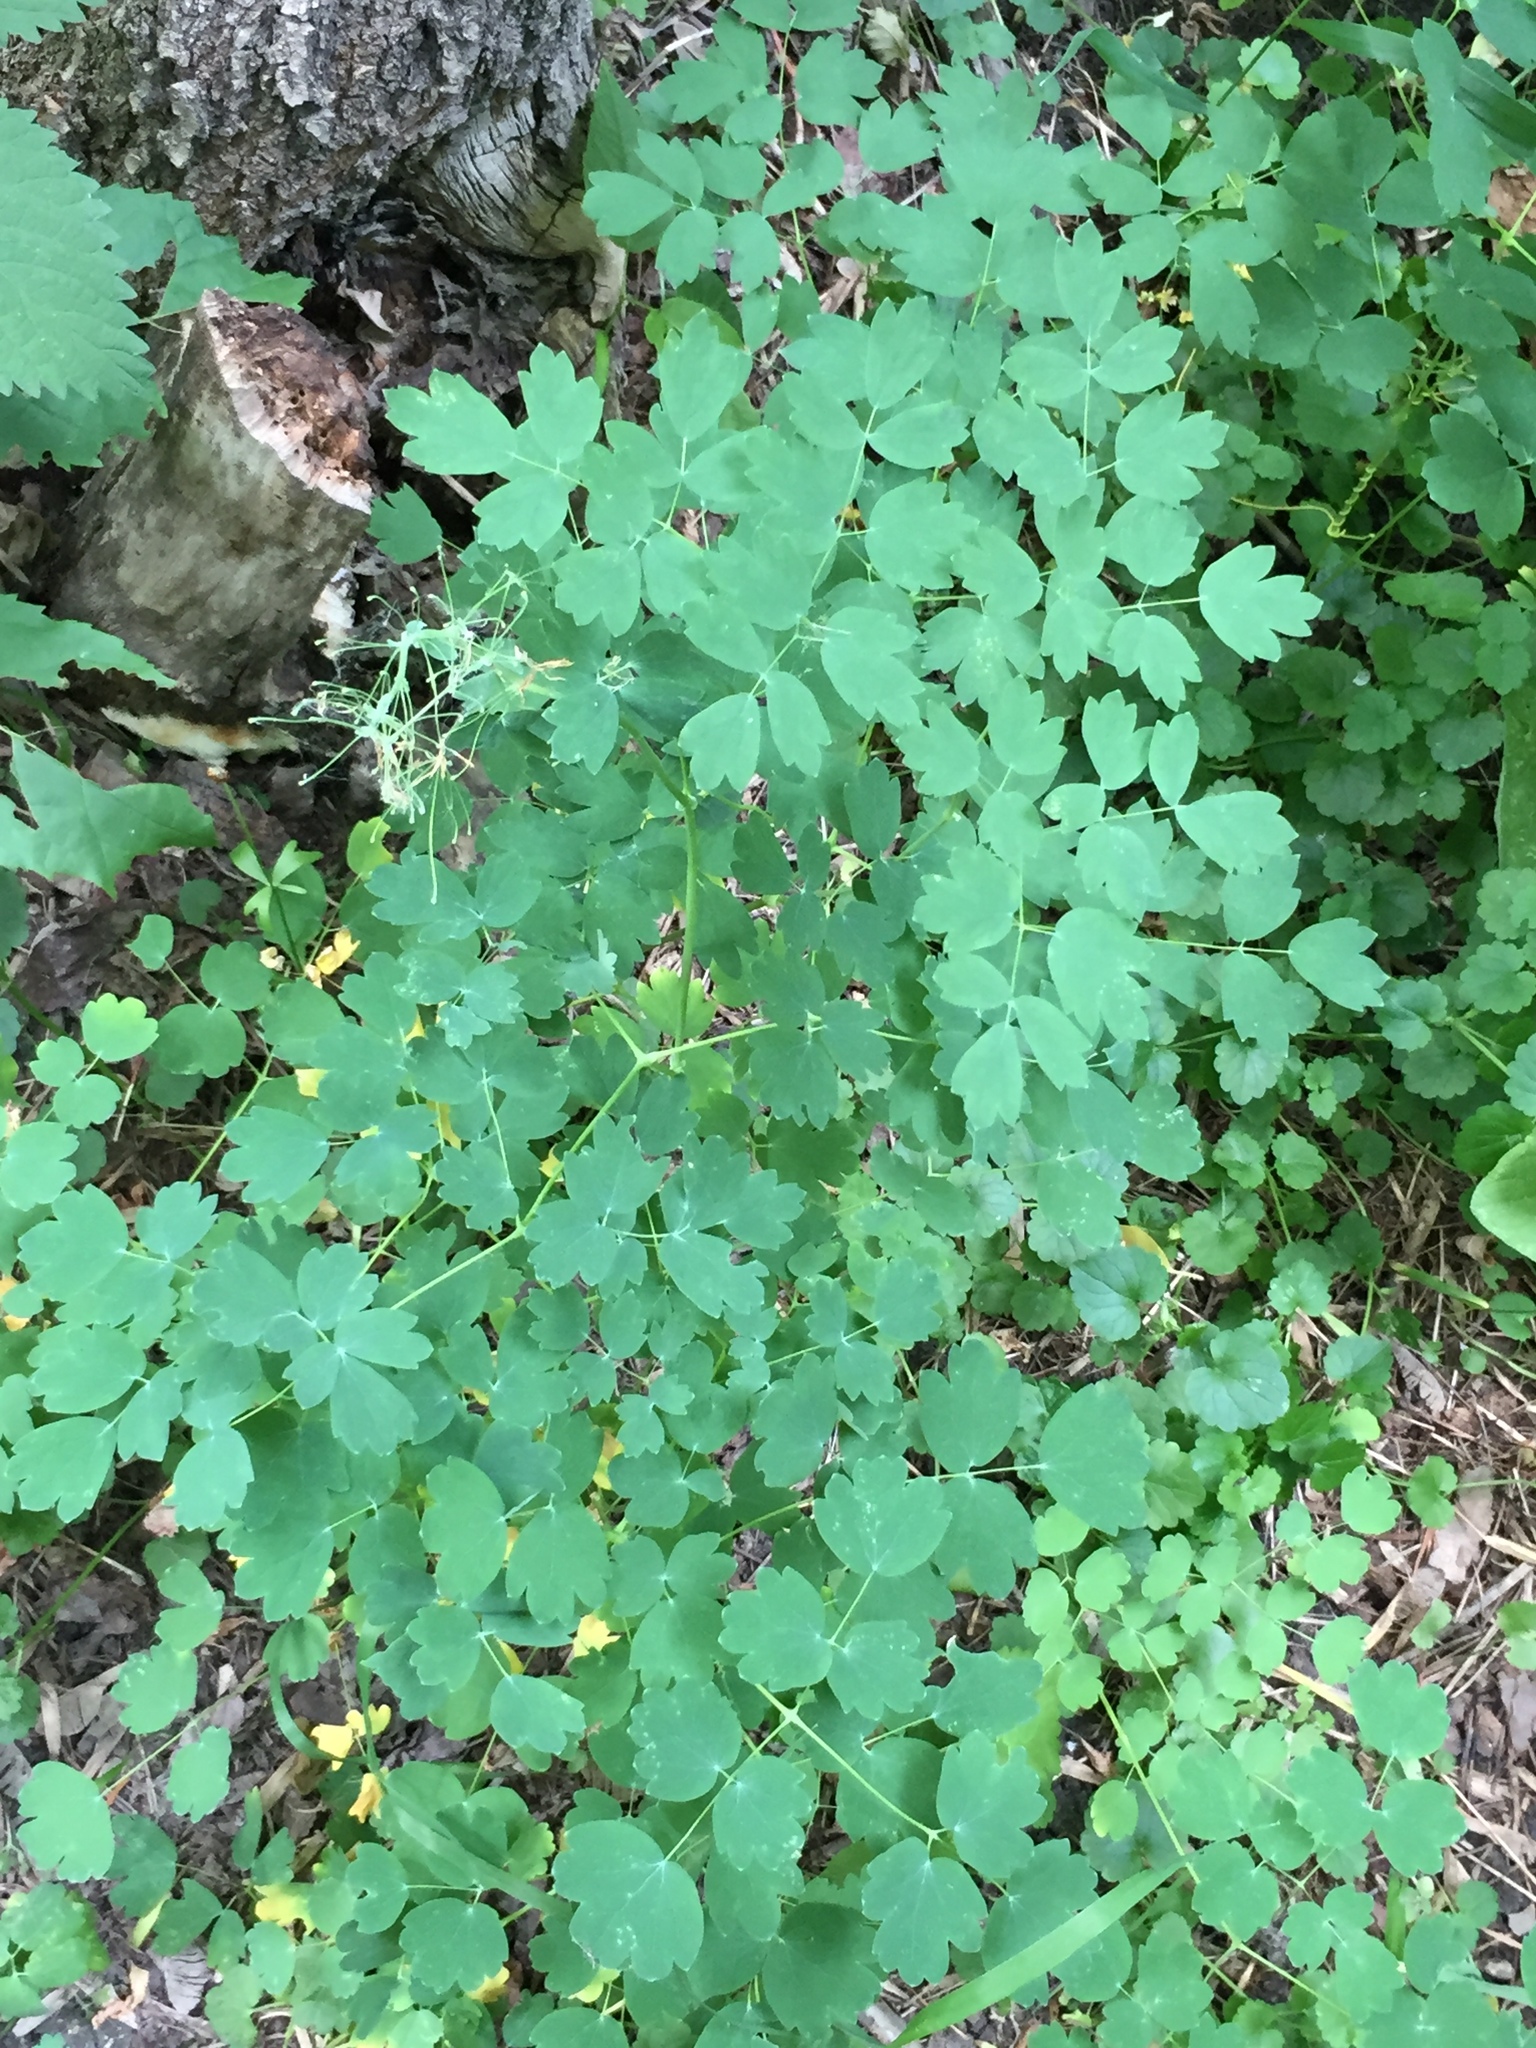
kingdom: Plantae
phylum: Tracheophyta
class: Magnoliopsida
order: Ranunculales
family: Ranunculaceae
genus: Thalictrum
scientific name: Thalictrum venulosum
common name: Early meadow-rue
